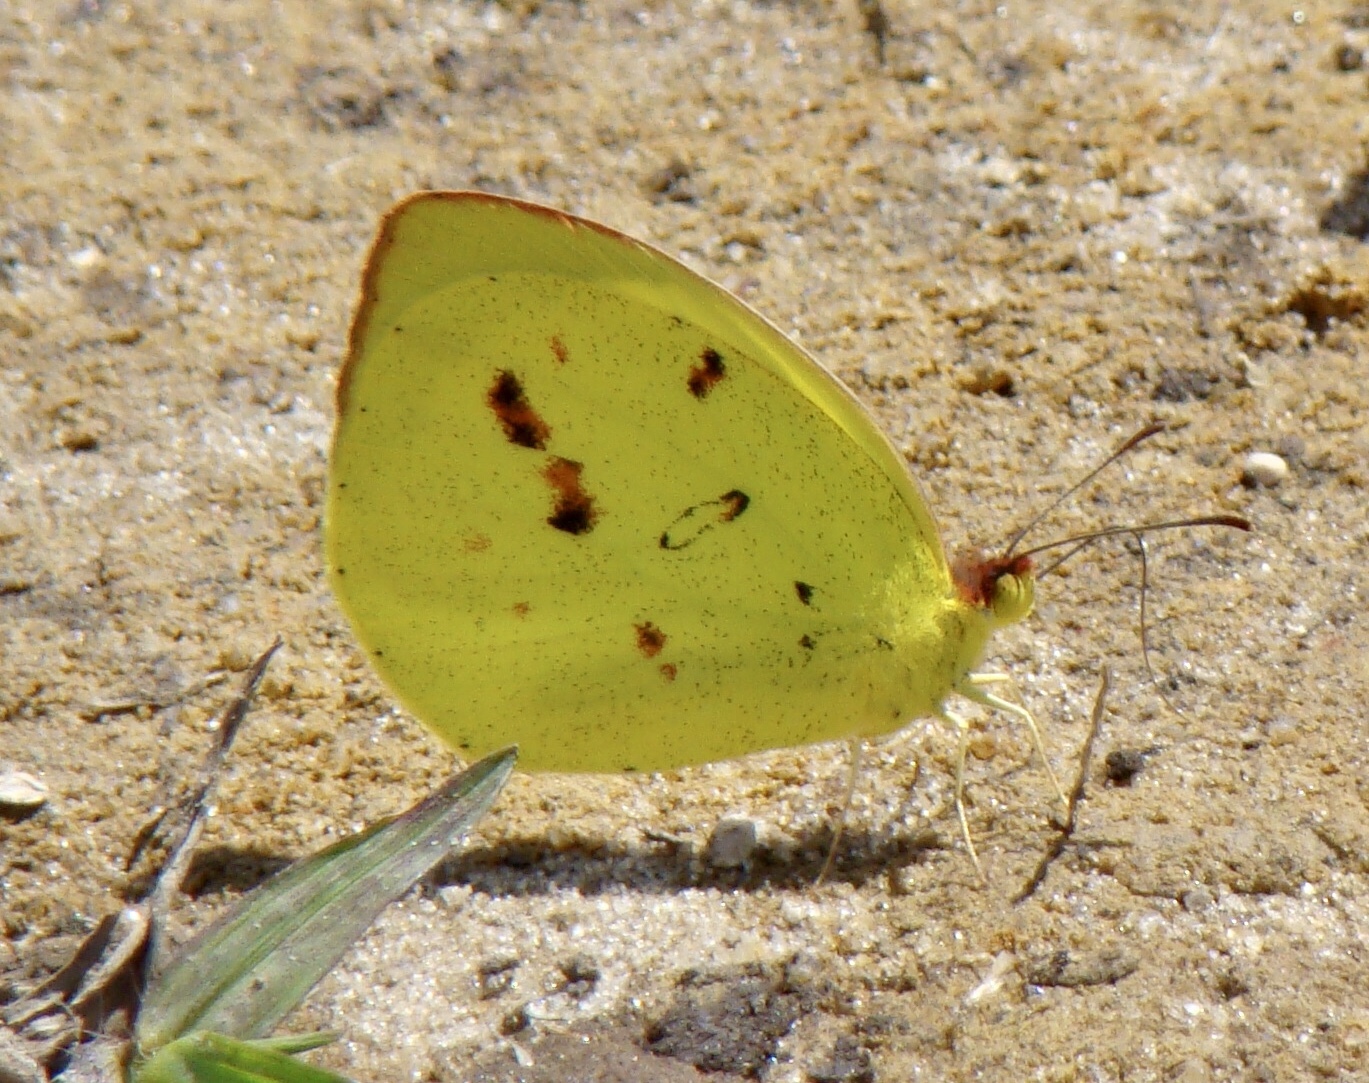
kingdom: Animalia
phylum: Arthropoda
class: Insecta
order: Lepidoptera
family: Pieridae
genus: Teriocolias
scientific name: Teriocolias
